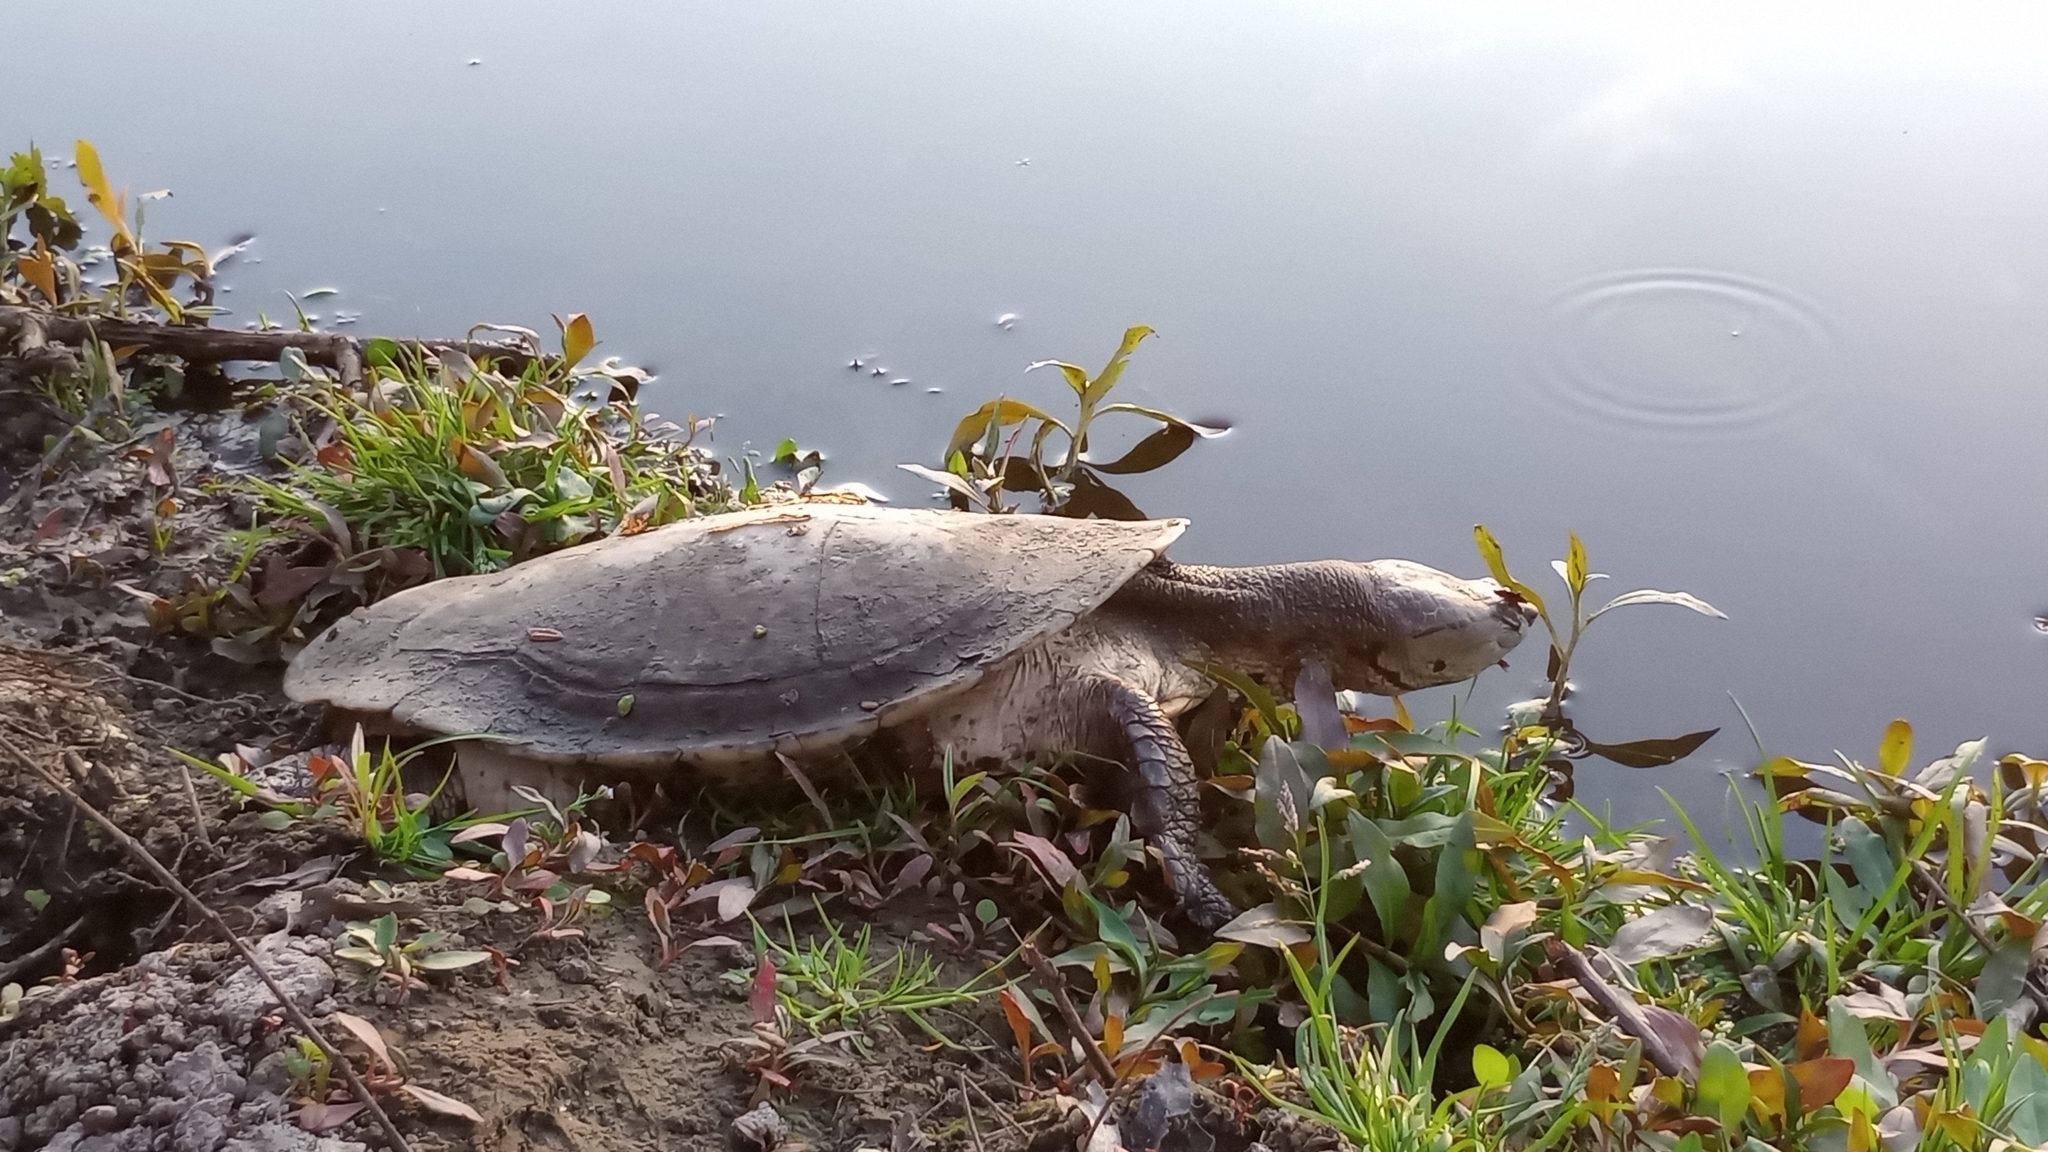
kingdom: Animalia
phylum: Chordata
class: Testudines
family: Chelidae
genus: Phrynops
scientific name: Phrynops hilarii
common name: Side-necked turtle of saint hillaire
